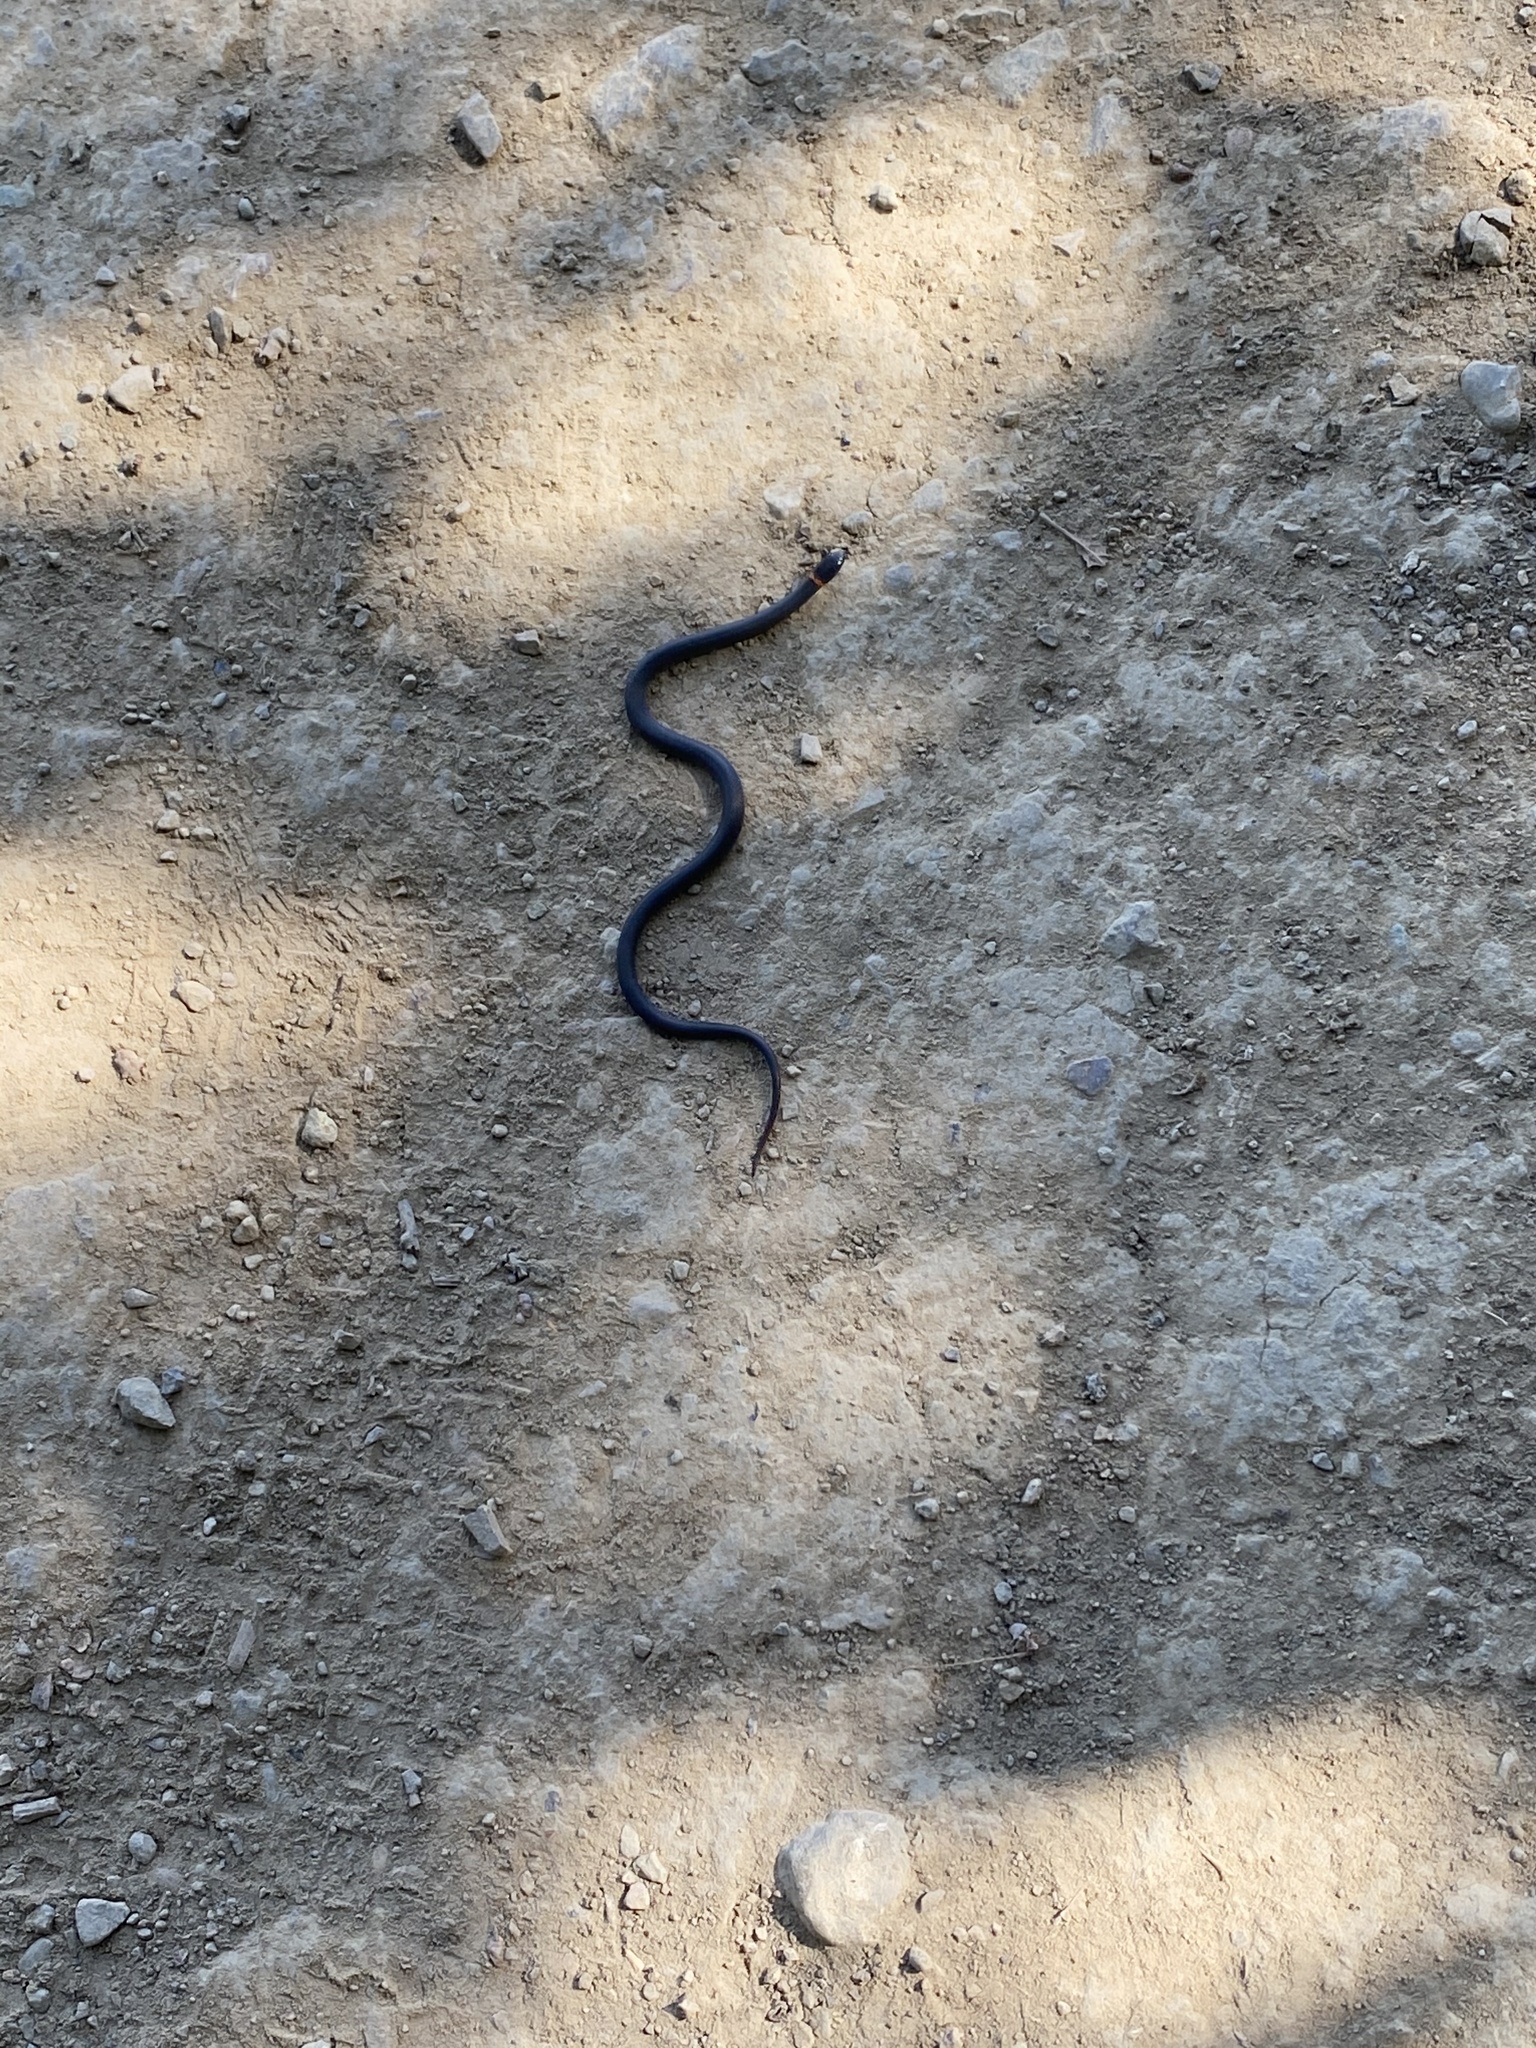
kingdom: Animalia
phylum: Chordata
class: Squamata
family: Colubridae
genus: Diadophis
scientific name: Diadophis punctatus
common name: Ringneck snake
